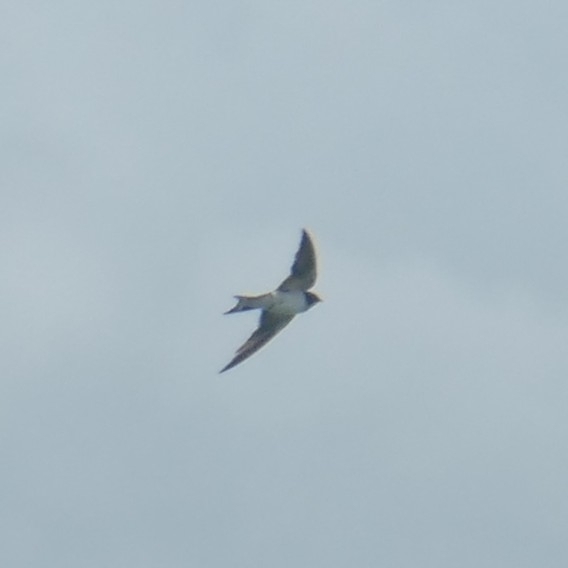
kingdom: Animalia
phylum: Chordata
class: Aves
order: Passeriformes
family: Hirundinidae
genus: Hirundo
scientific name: Hirundo rustica
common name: Barn swallow
